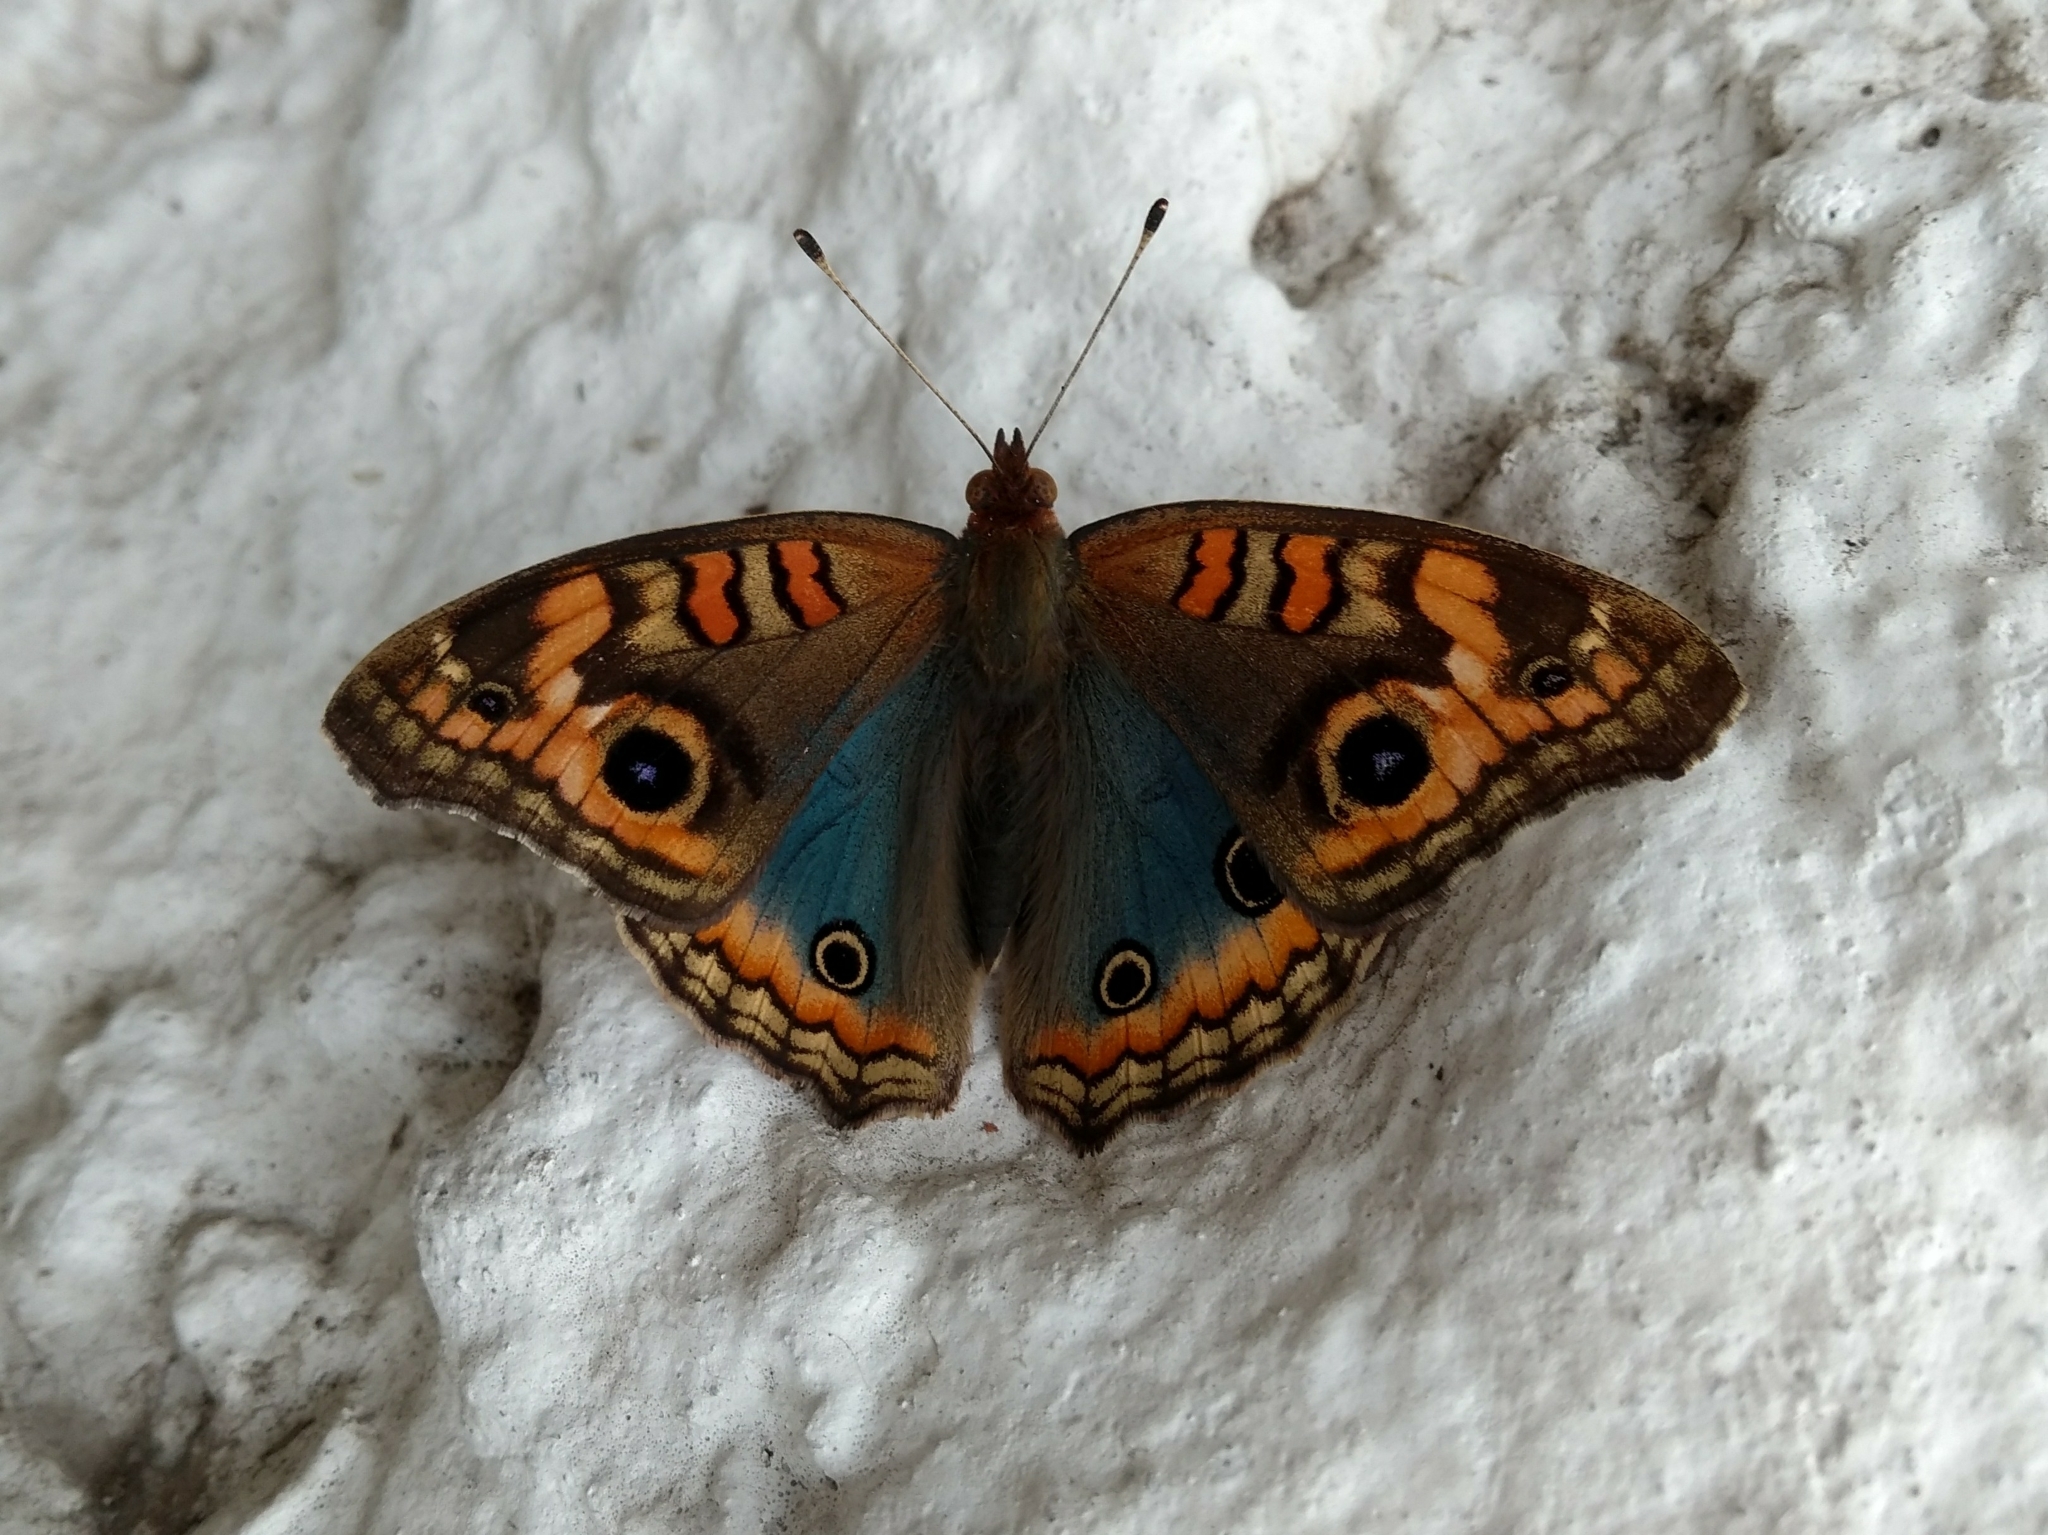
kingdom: Animalia
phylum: Arthropoda
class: Insecta
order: Lepidoptera
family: Nymphalidae
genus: Junonia
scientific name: Junonia lavinia
